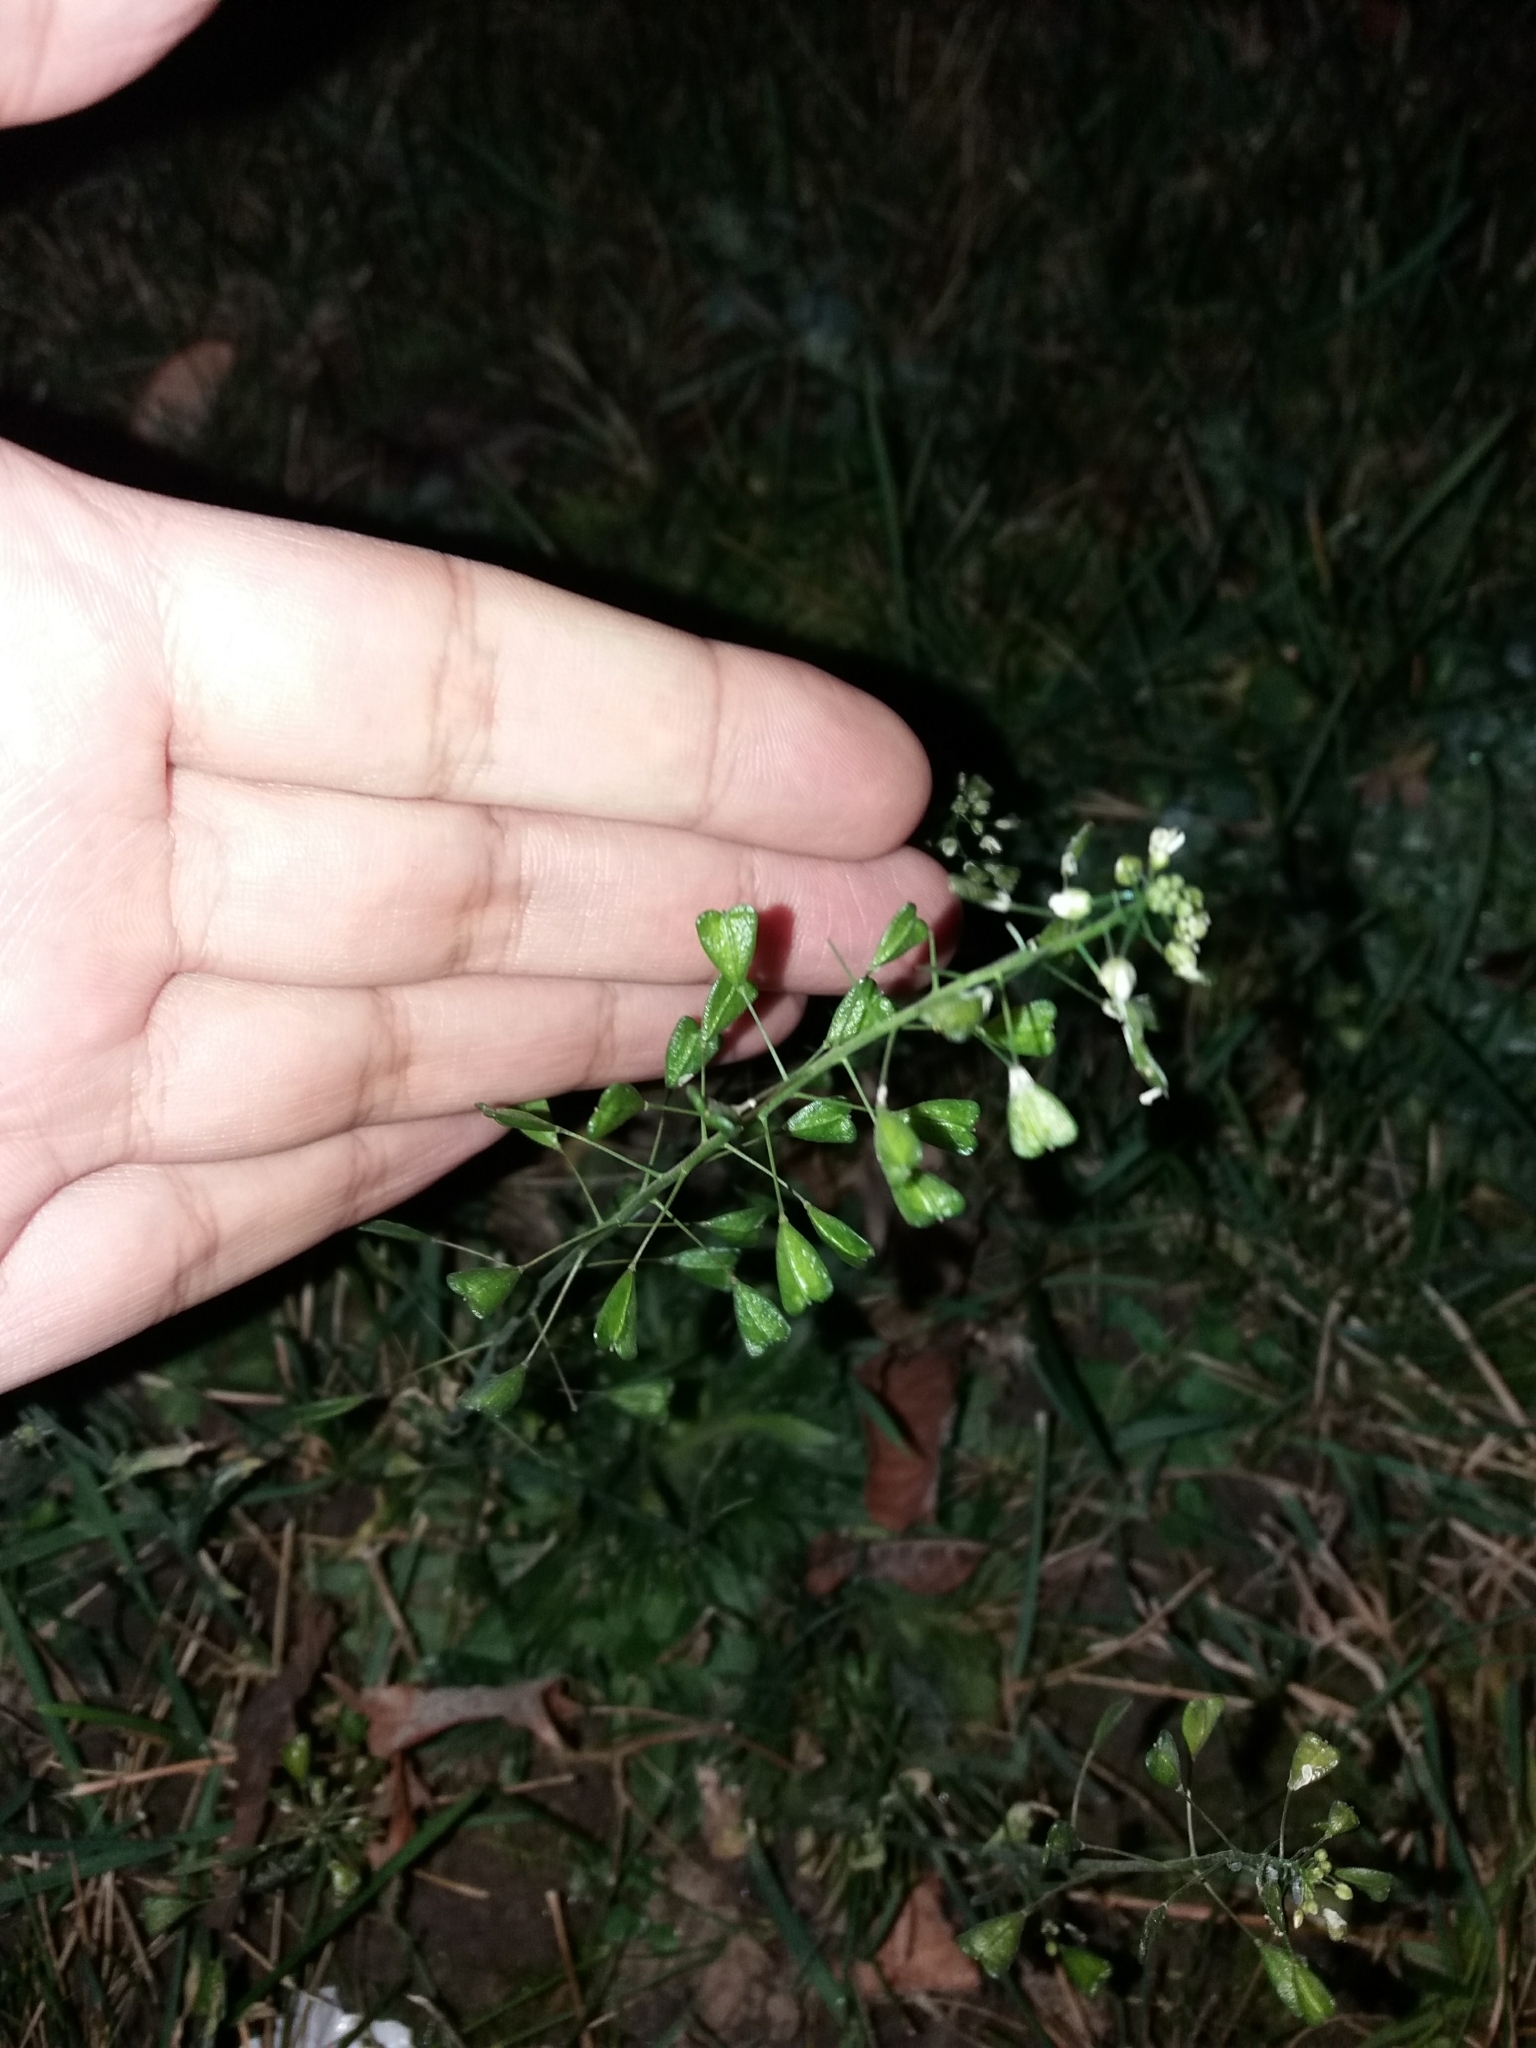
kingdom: Plantae
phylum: Tracheophyta
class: Magnoliopsida
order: Brassicales
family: Brassicaceae
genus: Capsella
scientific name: Capsella bursa-pastoris
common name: Shepherd's purse
